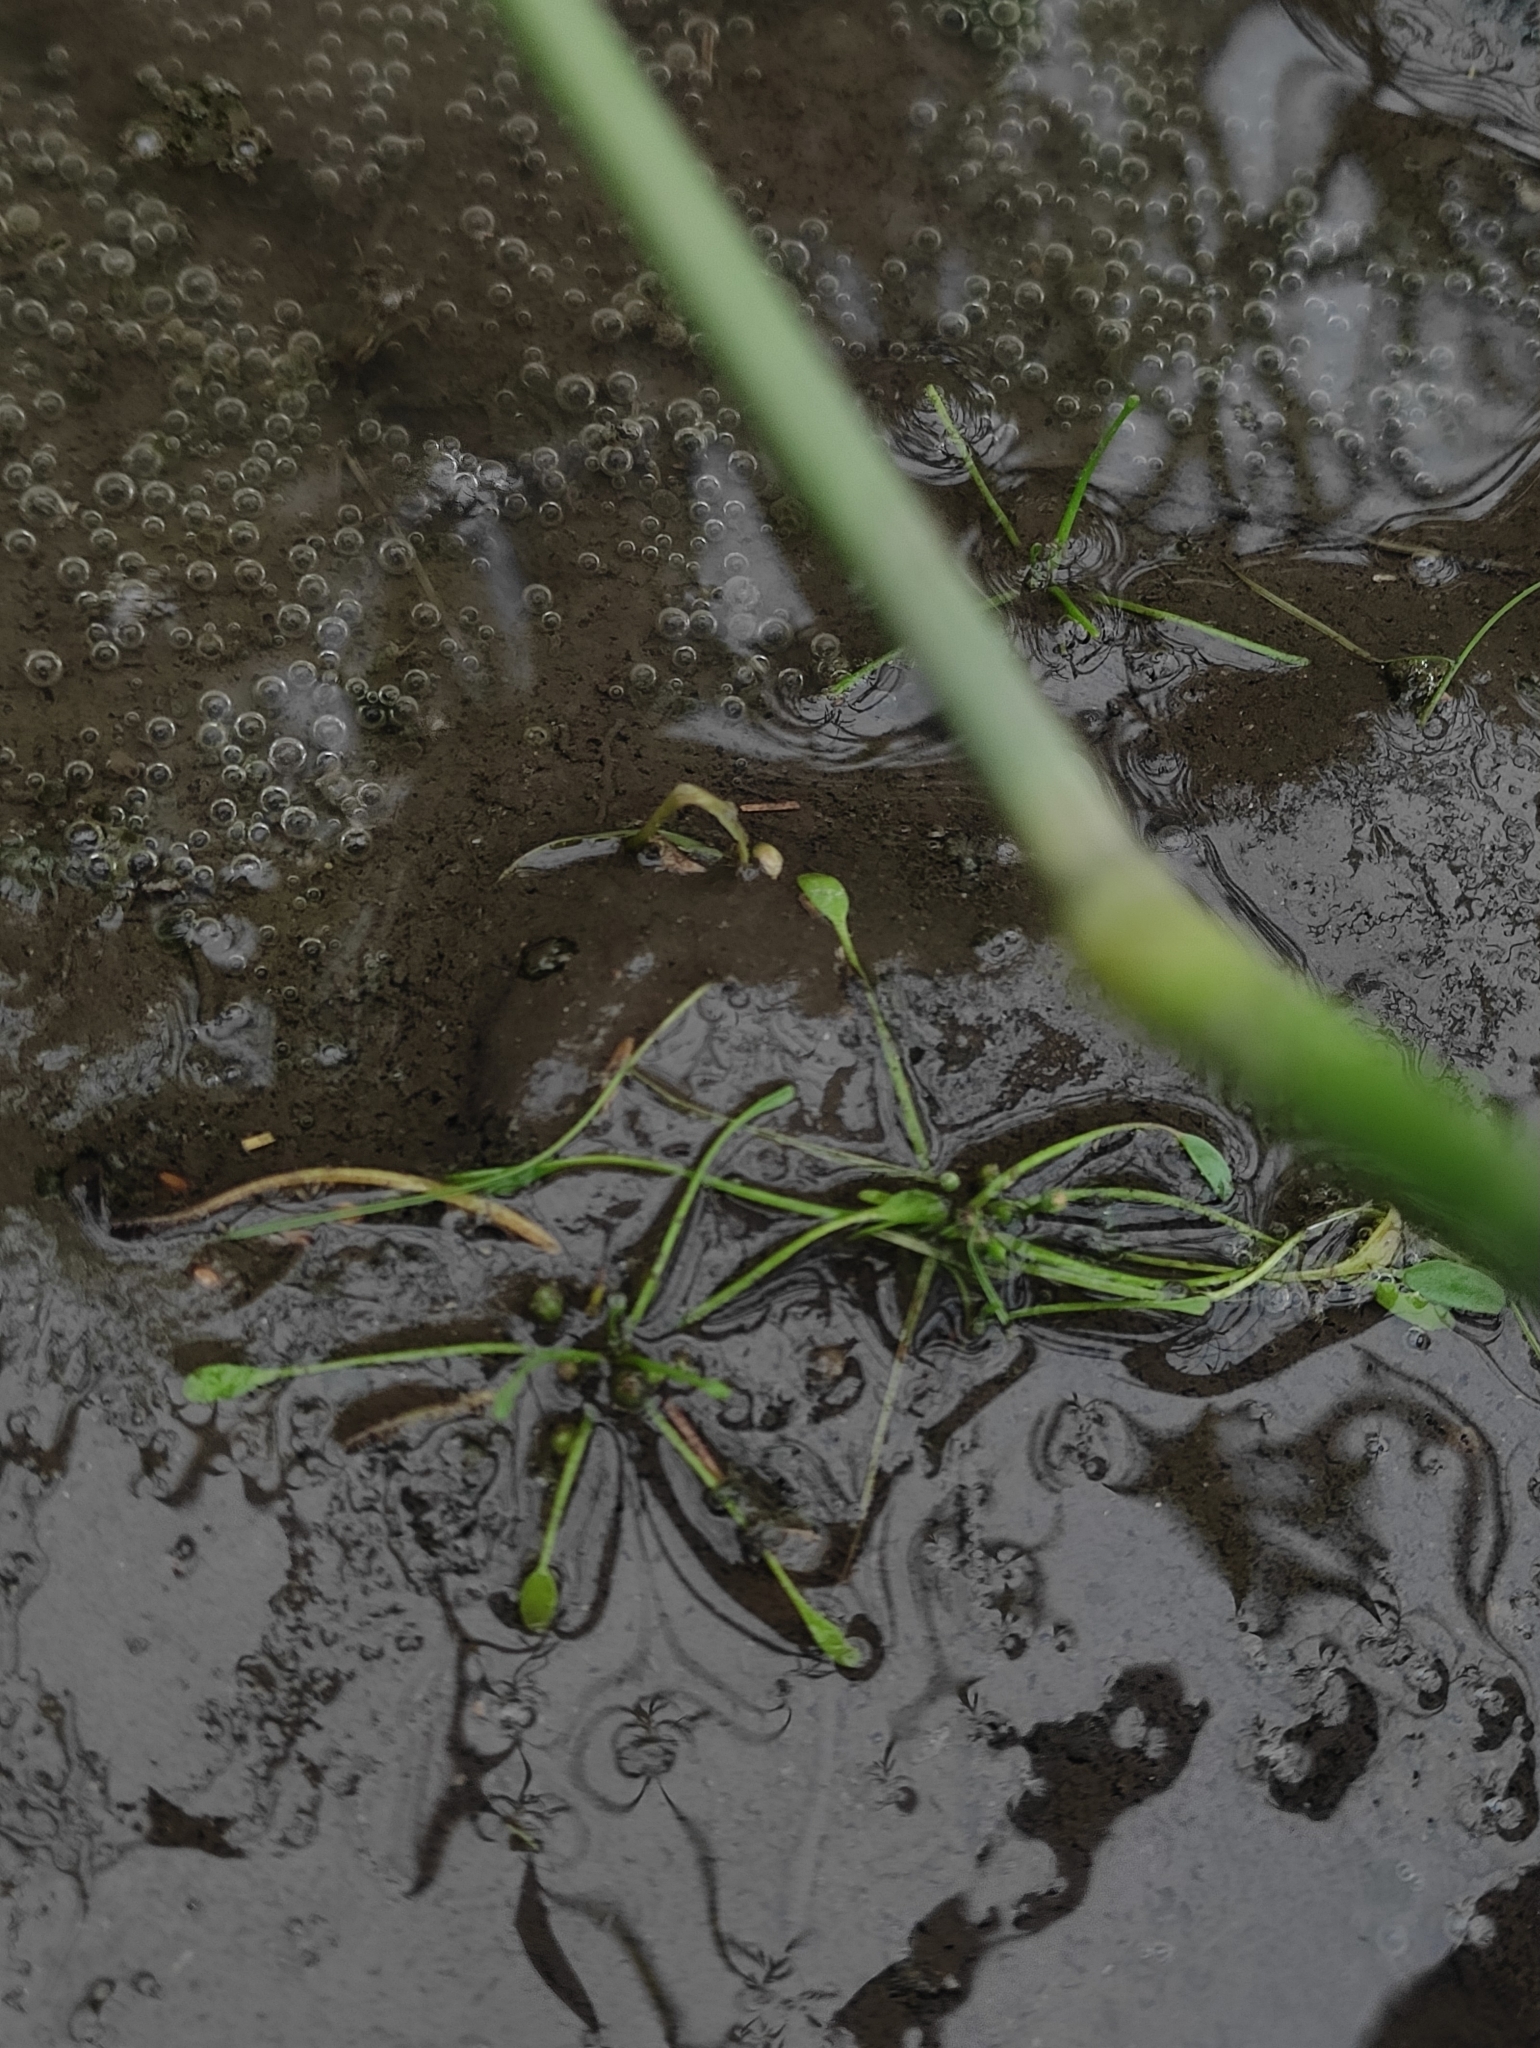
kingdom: Plantae
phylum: Tracheophyta
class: Magnoliopsida
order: Lamiales
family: Scrophulariaceae
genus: Limosella
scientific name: Limosella aquatica
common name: Mudwort
